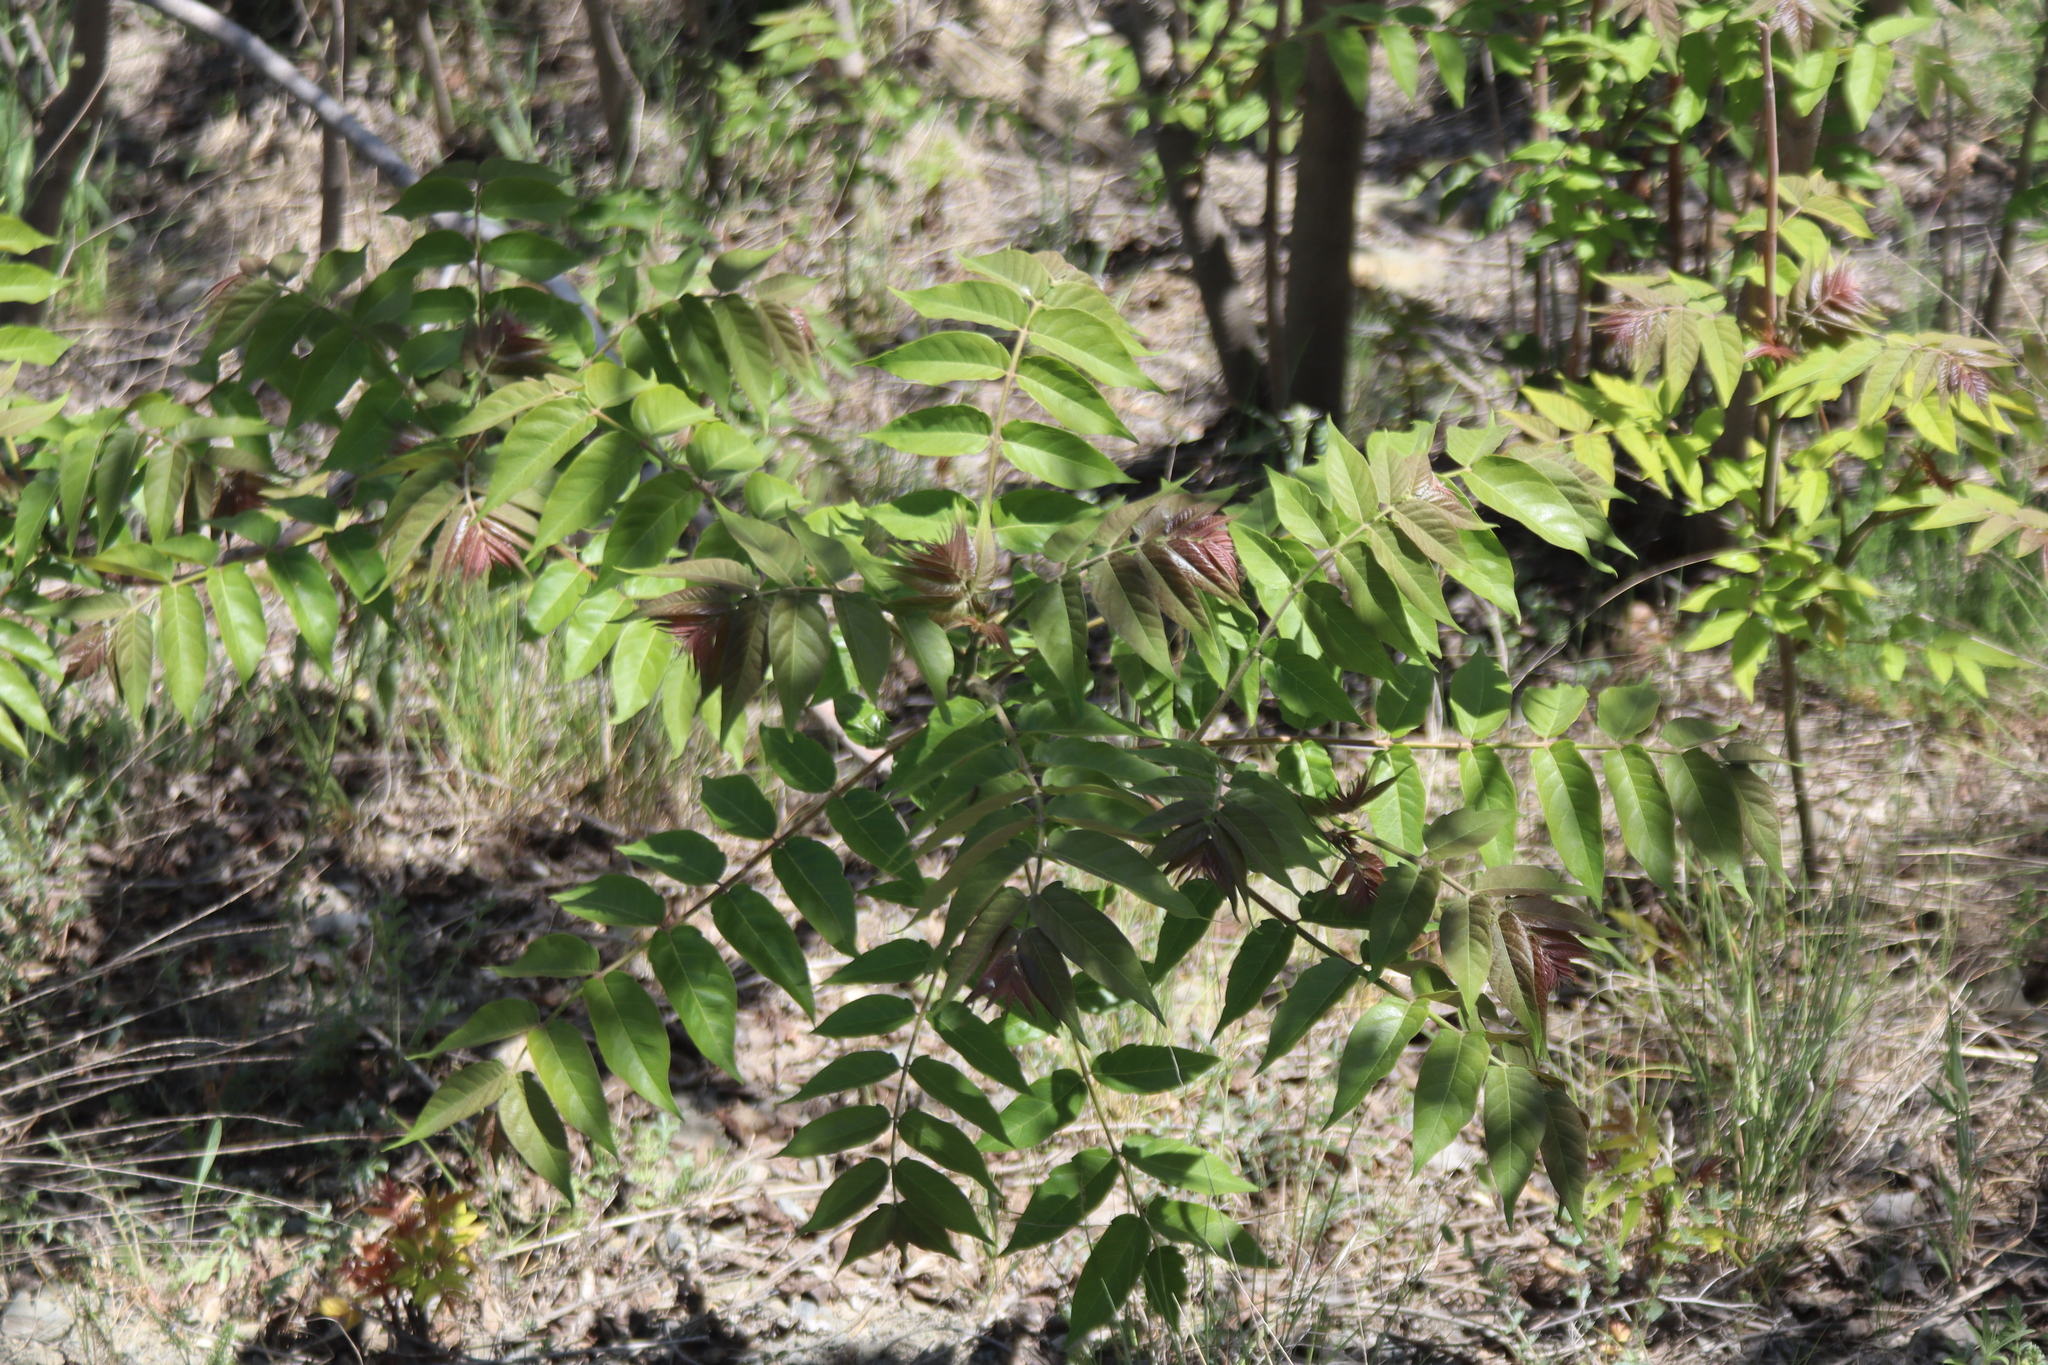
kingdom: Plantae
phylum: Tracheophyta
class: Magnoliopsida
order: Sapindales
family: Simaroubaceae
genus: Ailanthus
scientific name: Ailanthus altissima
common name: Tree-of-heaven
